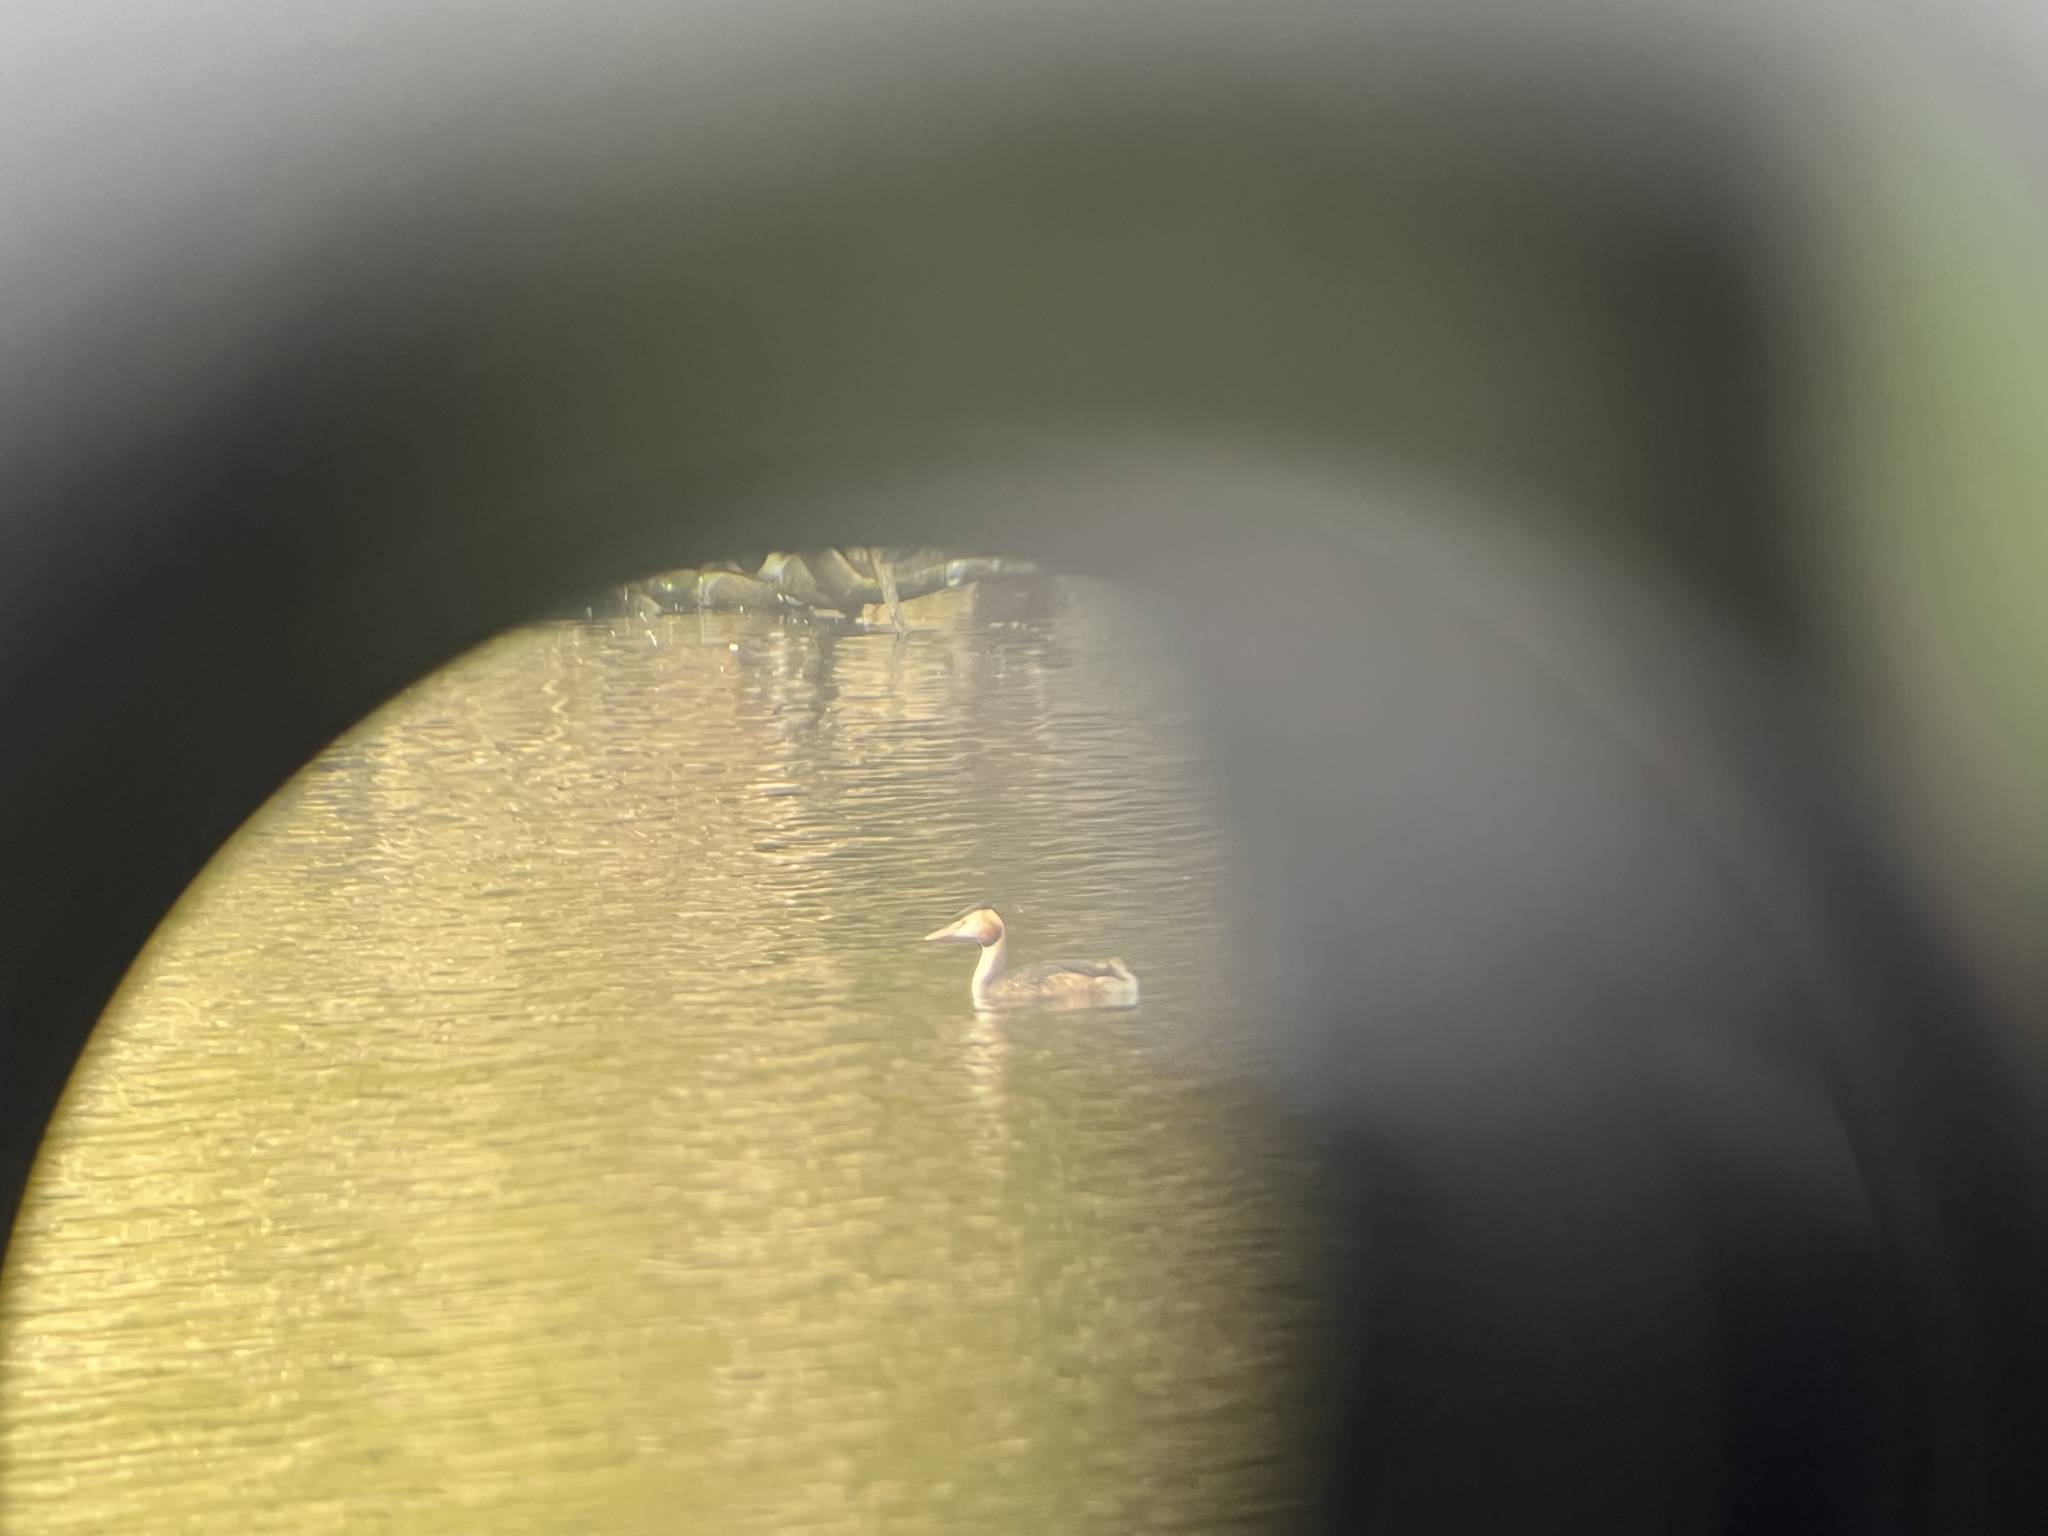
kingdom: Animalia
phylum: Chordata
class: Aves
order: Podicipediformes
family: Podicipedidae
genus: Podiceps
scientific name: Podiceps cristatus
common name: Great crested grebe
